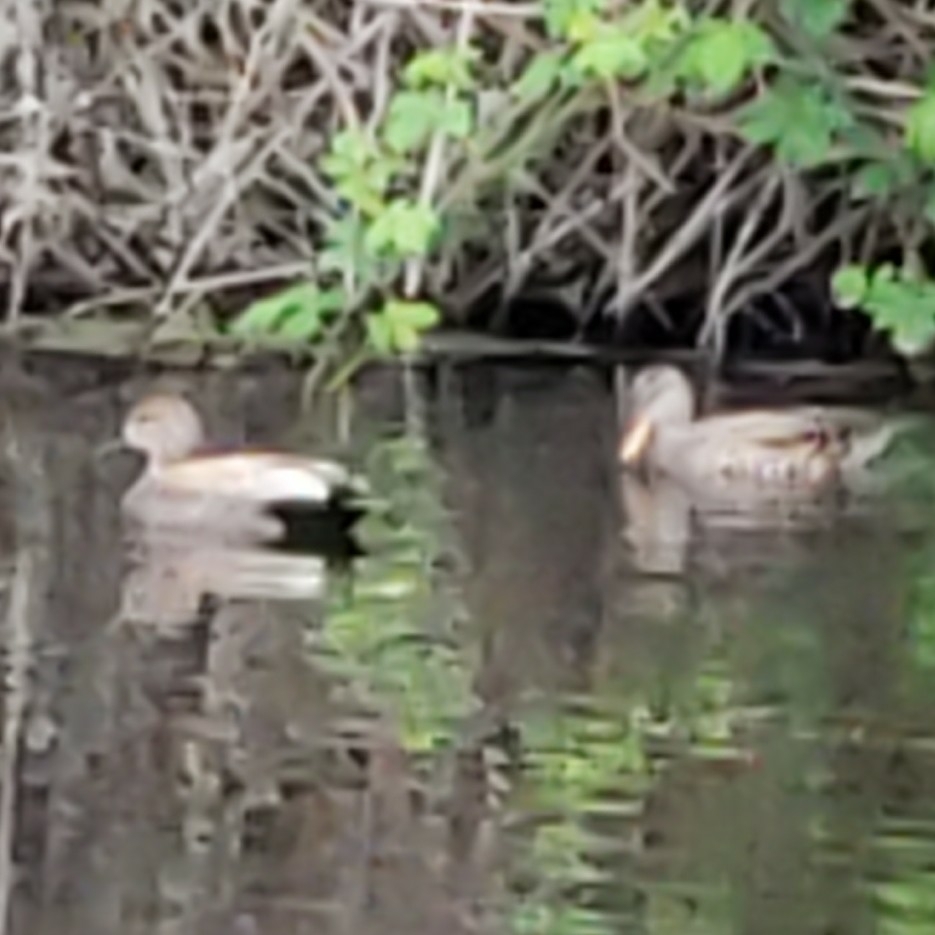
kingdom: Animalia
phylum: Chordata
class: Aves
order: Anseriformes
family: Anatidae
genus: Mareca
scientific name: Mareca strepera
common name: Gadwall
